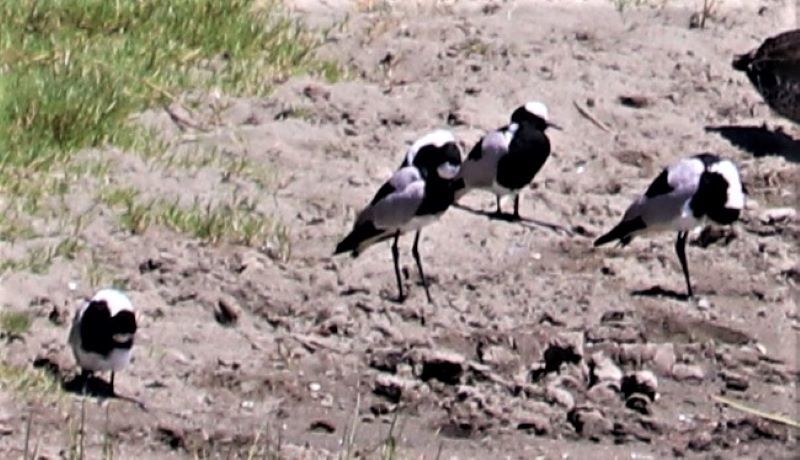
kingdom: Animalia
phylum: Chordata
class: Aves
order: Charadriiformes
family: Charadriidae
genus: Vanellus
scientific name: Vanellus armatus
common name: Blacksmith lapwing
